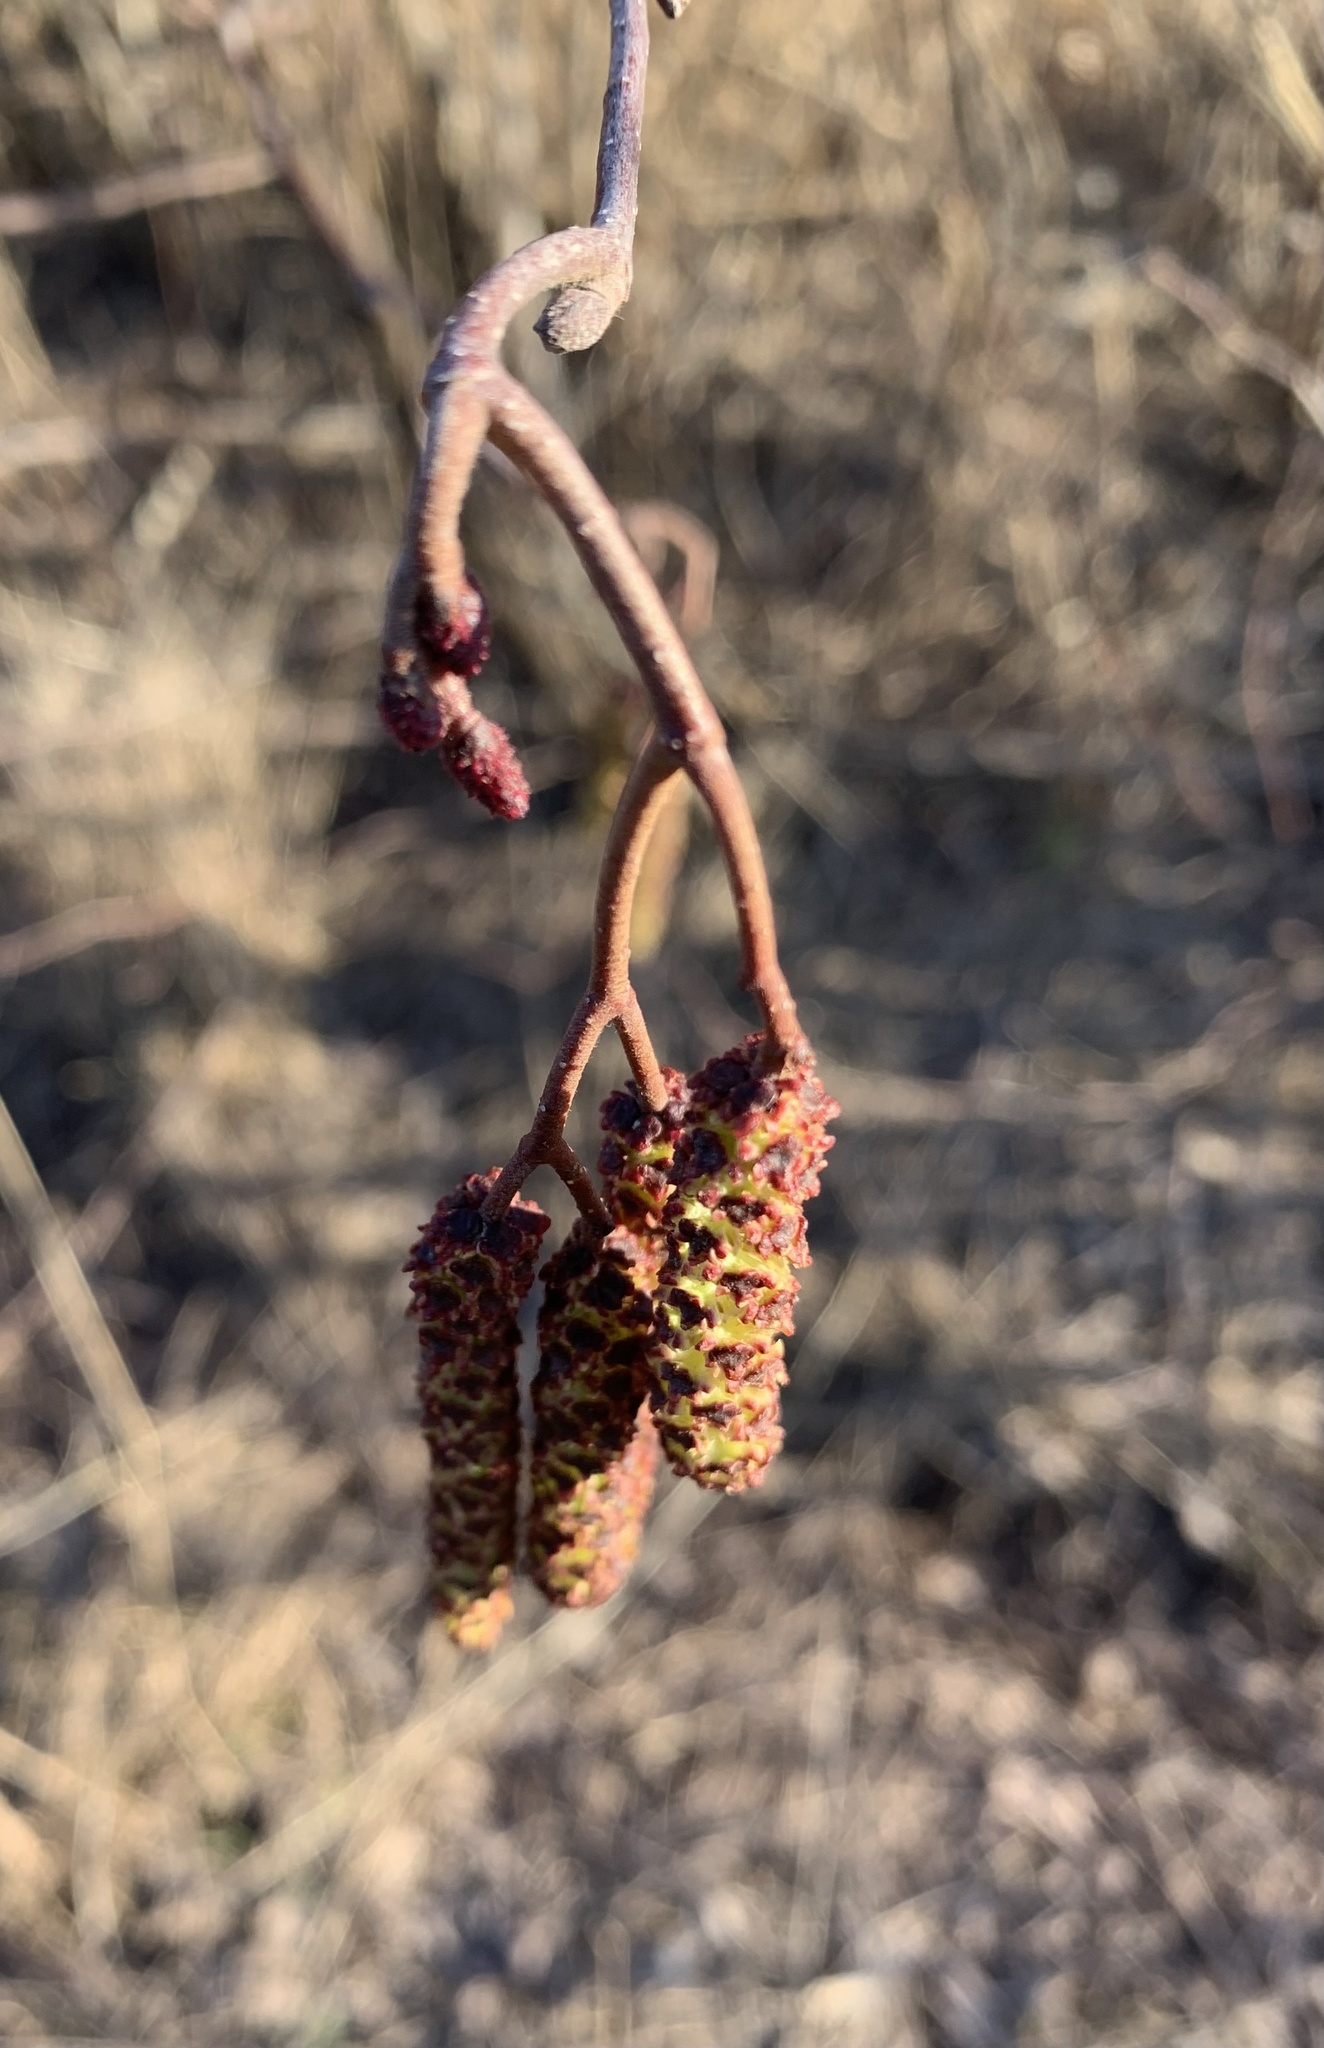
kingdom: Plantae
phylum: Tracheophyta
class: Magnoliopsida
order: Fagales
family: Betulaceae
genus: Alnus
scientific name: Alnus incana
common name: Grey alder
